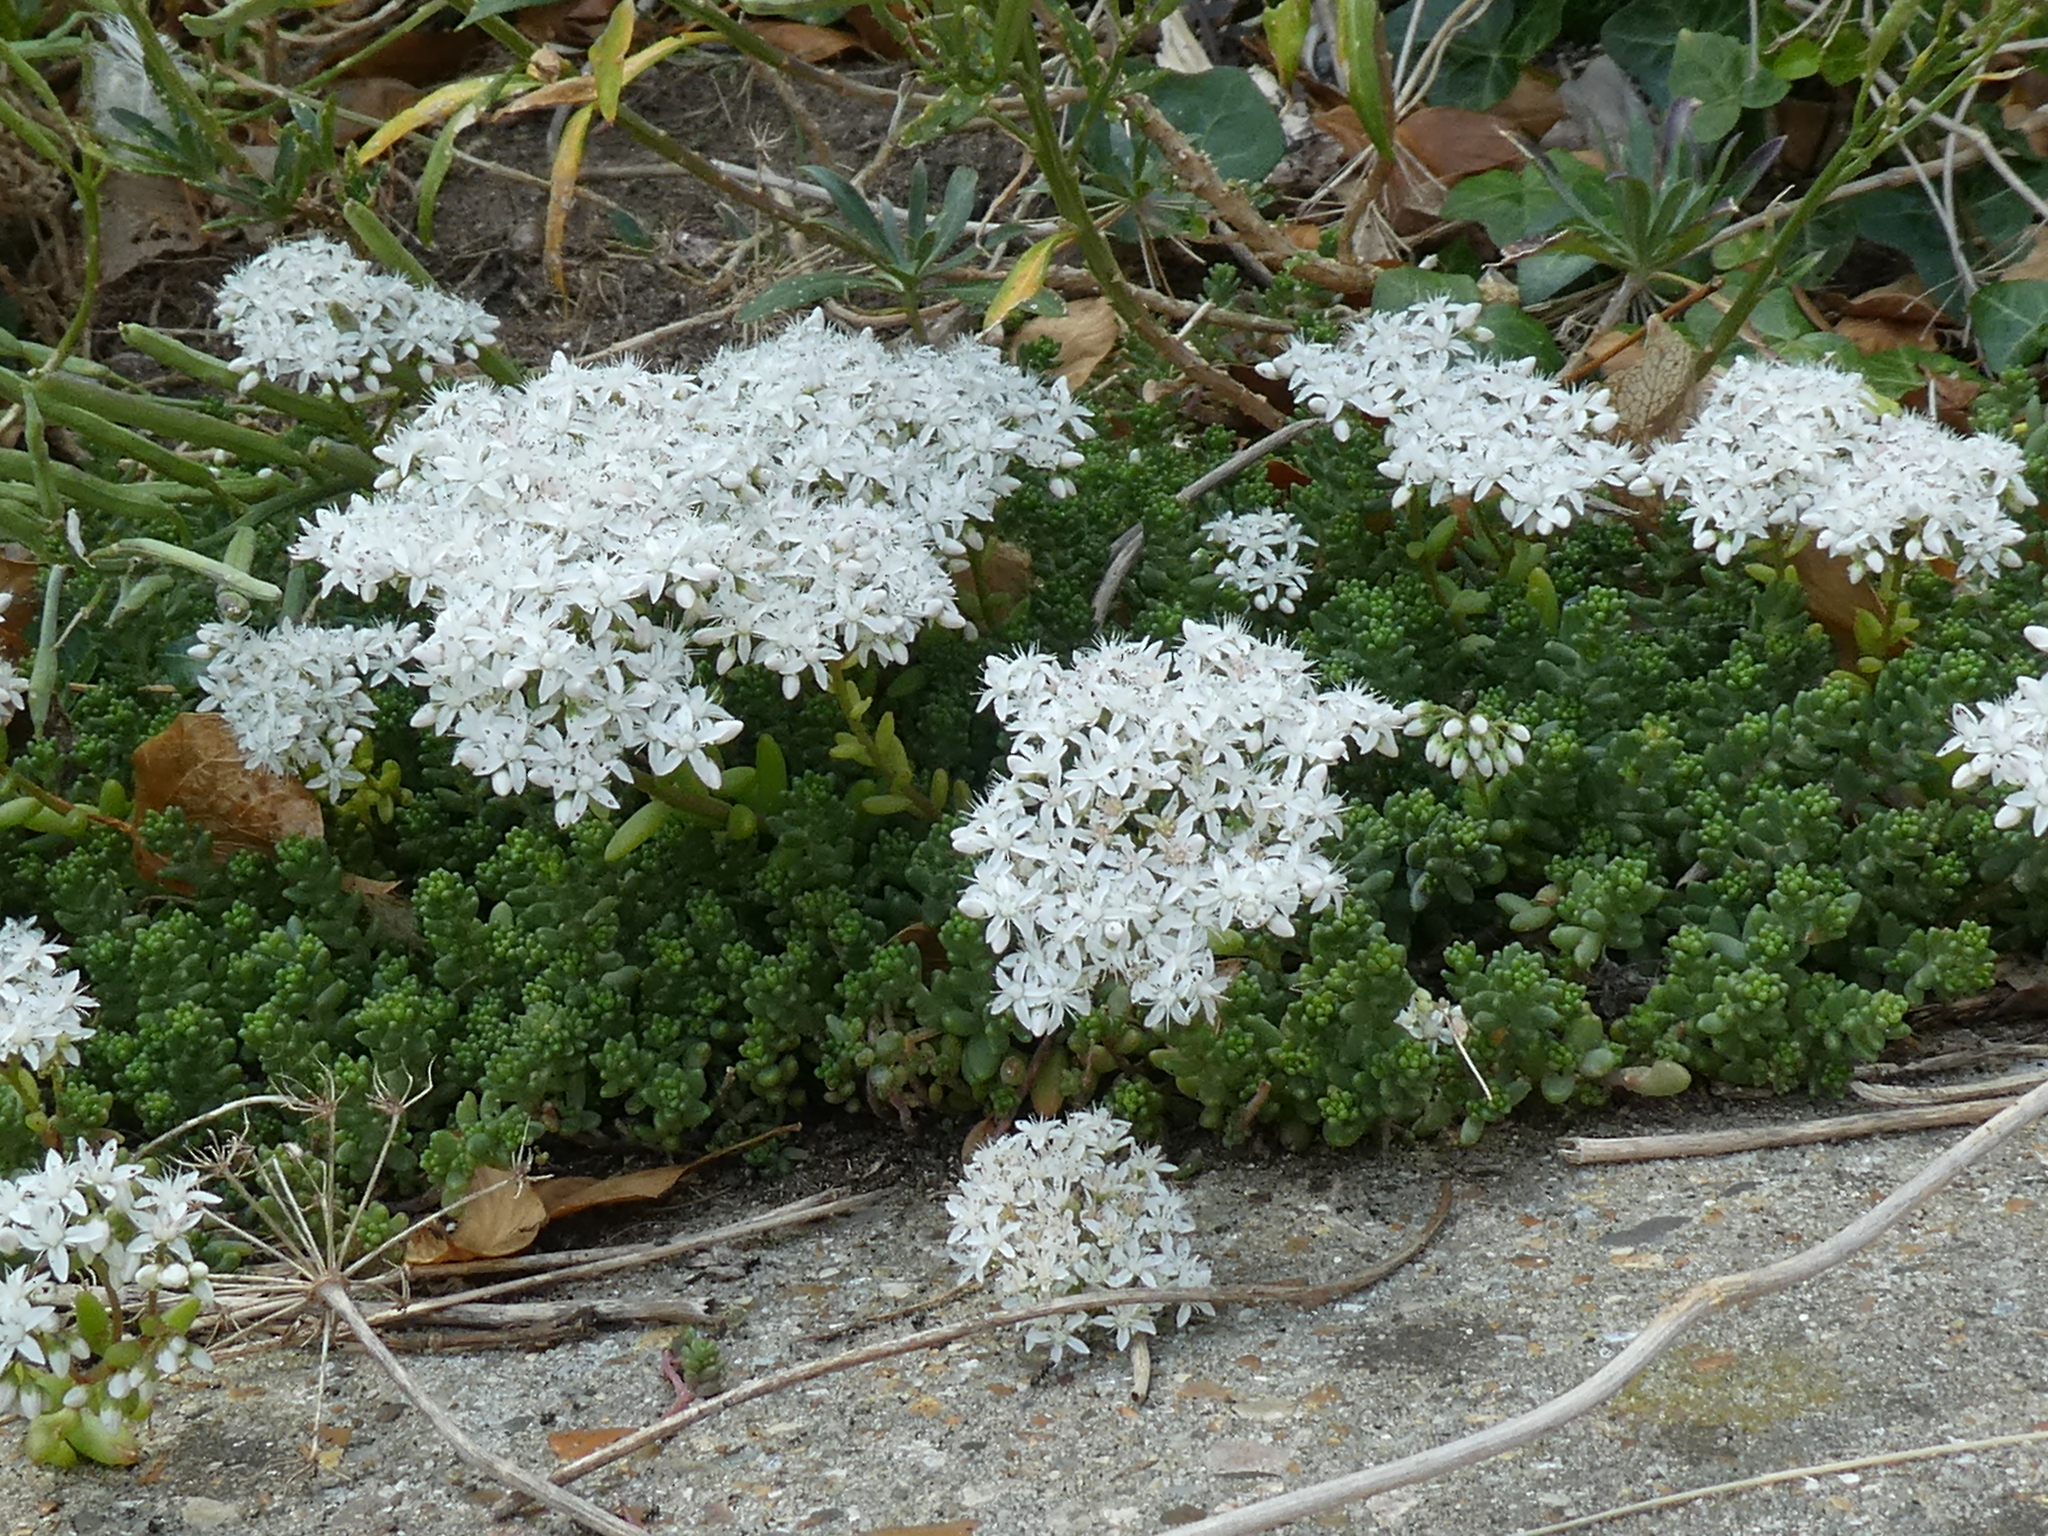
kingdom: Plantae
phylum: Tracheophyta
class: Magnoliopsida
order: Saxifragales
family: Crassulaceae
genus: Sedum
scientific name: Sedum album
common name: White stonecrop
